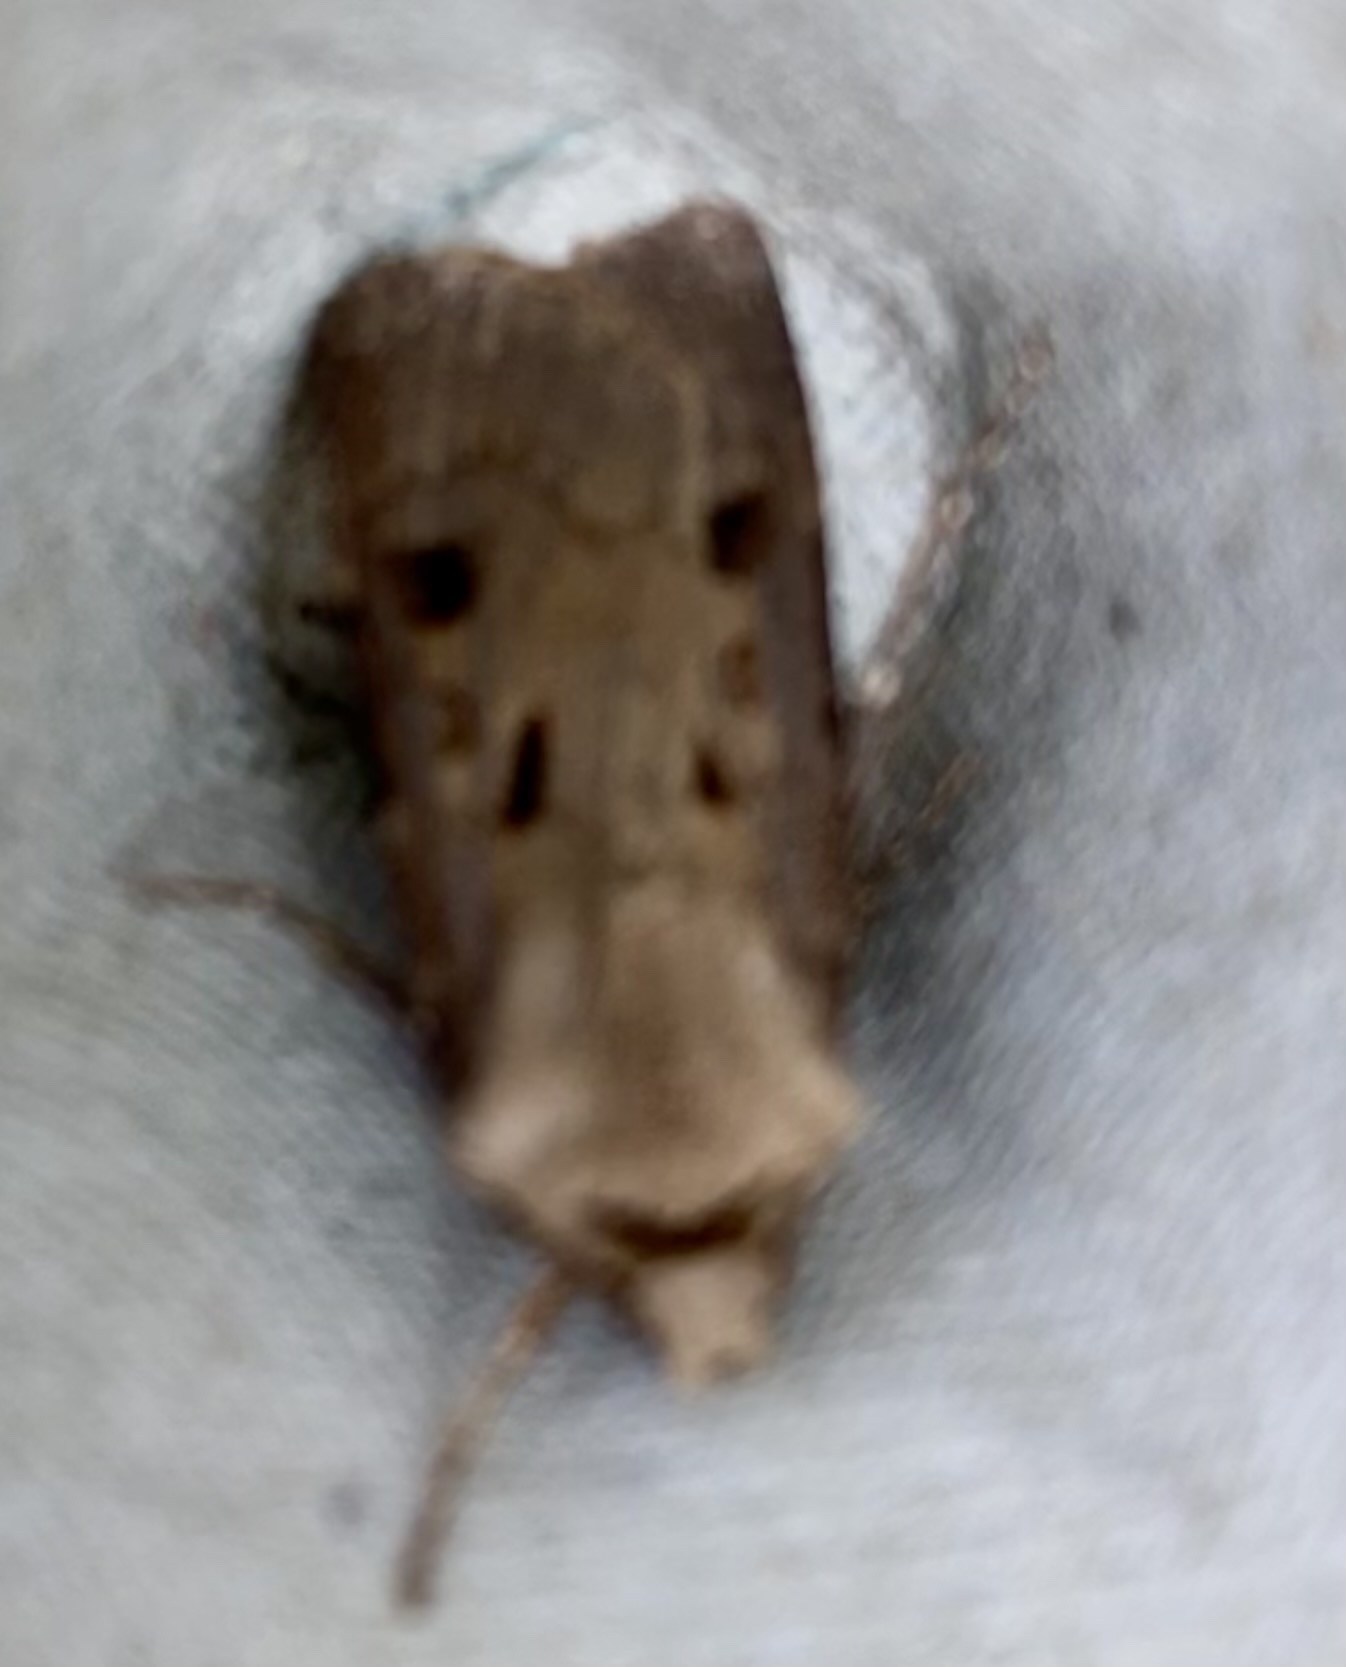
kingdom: Animalia
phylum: Arthropoda
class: Insecta
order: Lepidoptera
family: Noctuidae
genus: Agrotis
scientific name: Agrotis exclamationis
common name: Heart and dart
